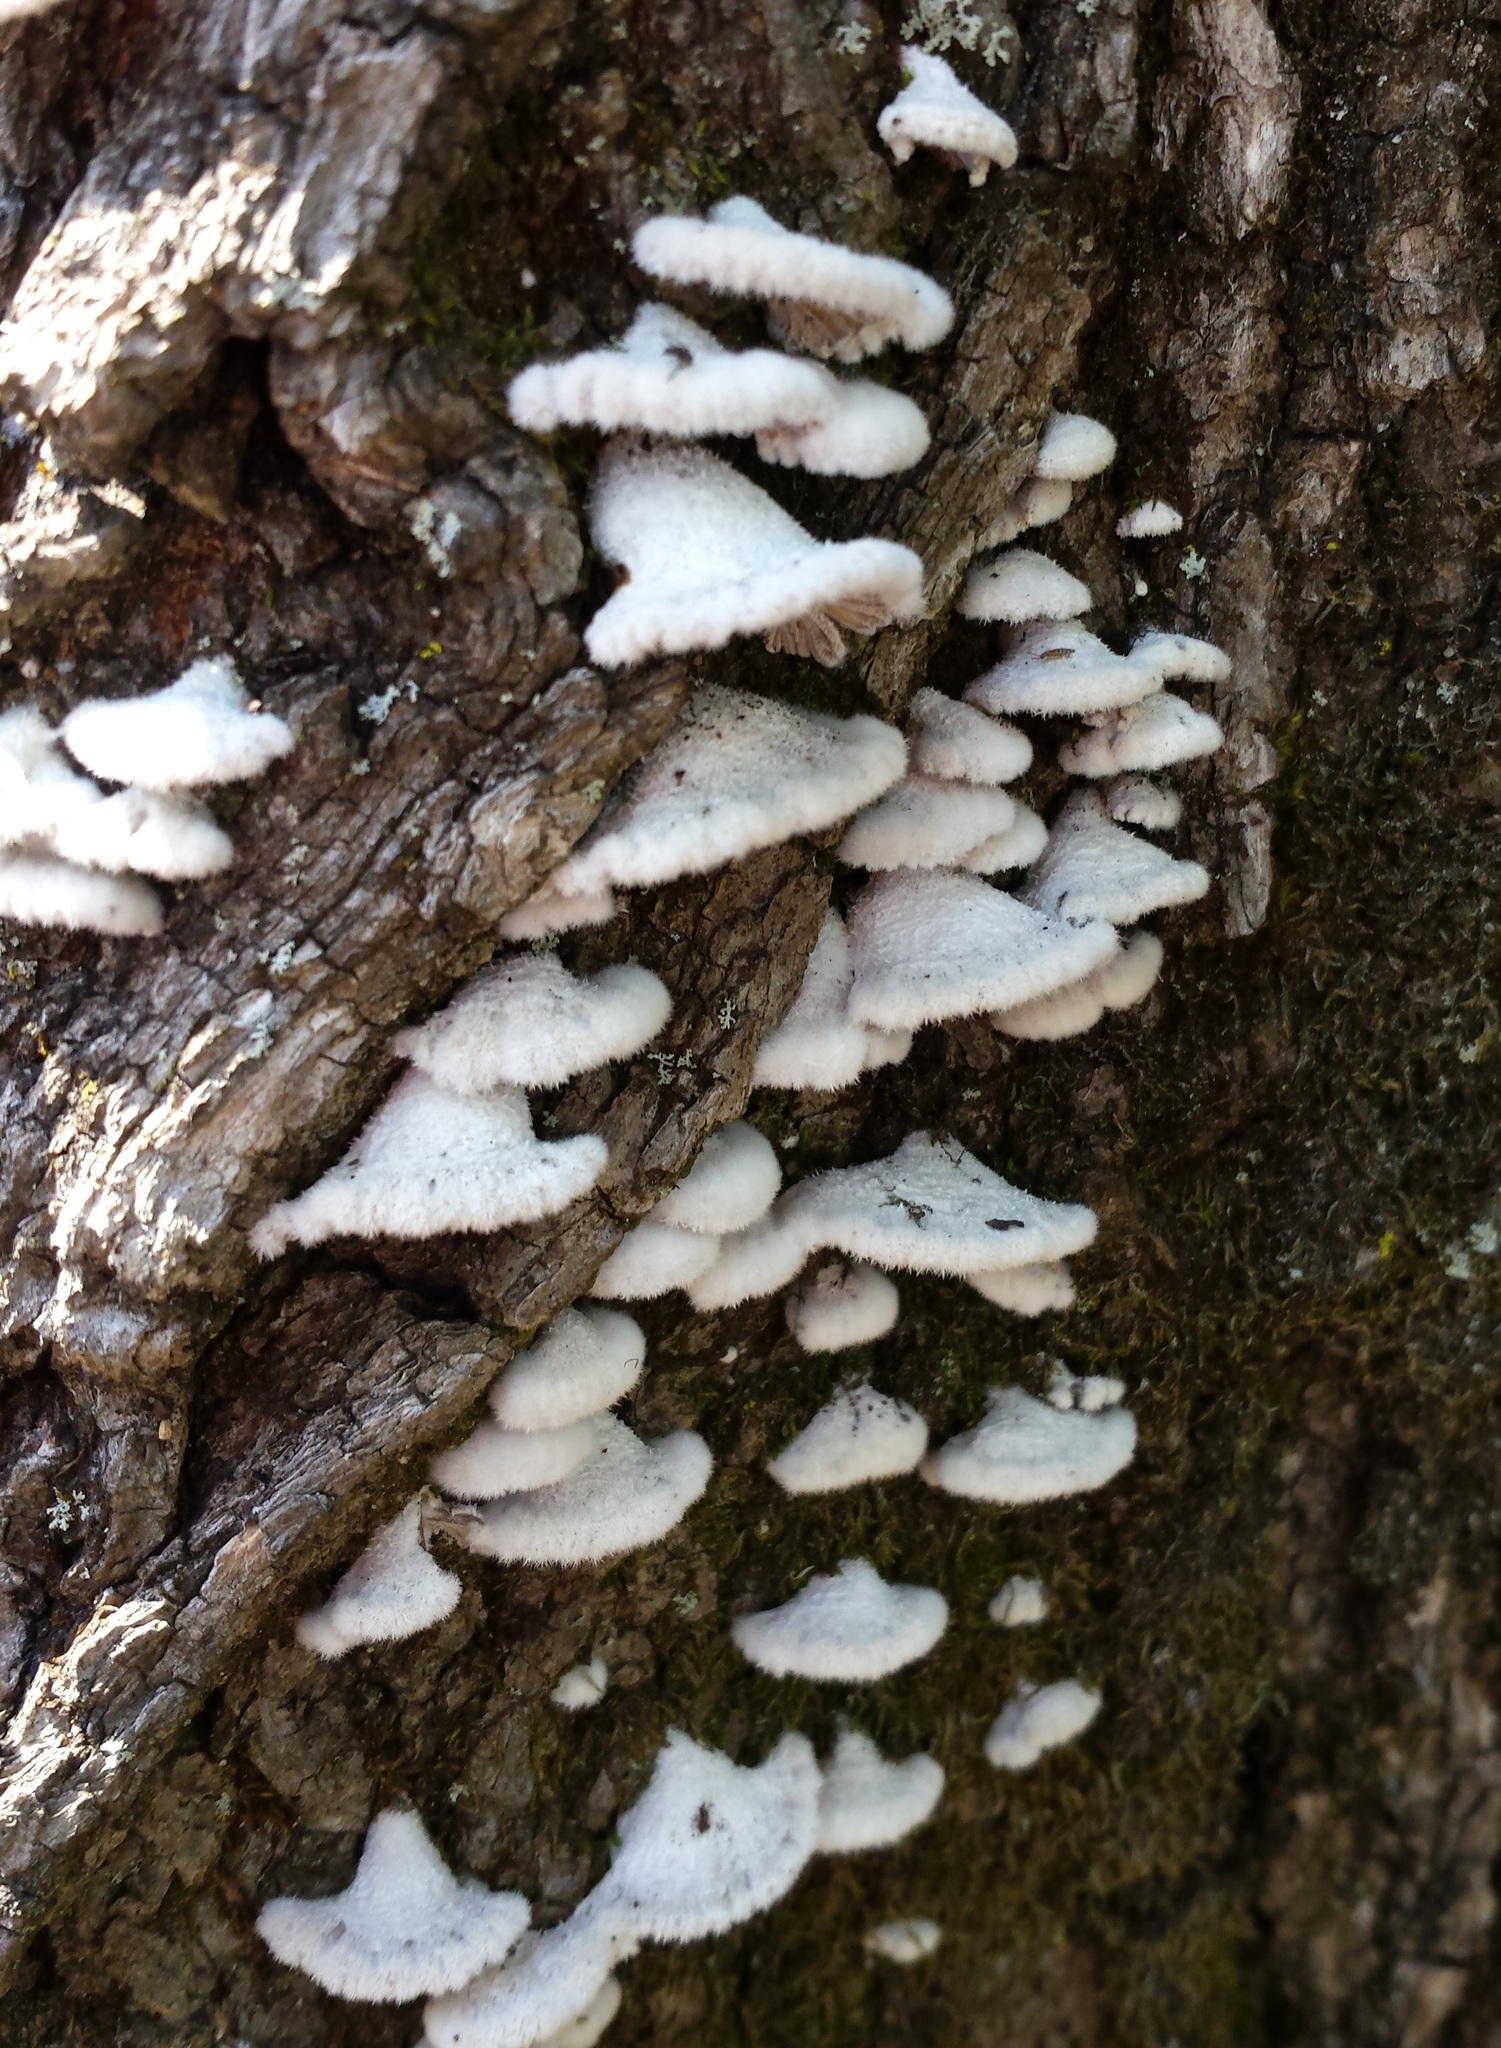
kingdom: Fungi
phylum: Basidiomycota
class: Agaricomycetes
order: Agaricales
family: Schizophyllaceae
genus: Schizophyllum
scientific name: Schizophyllum commune
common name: Common porecrust
